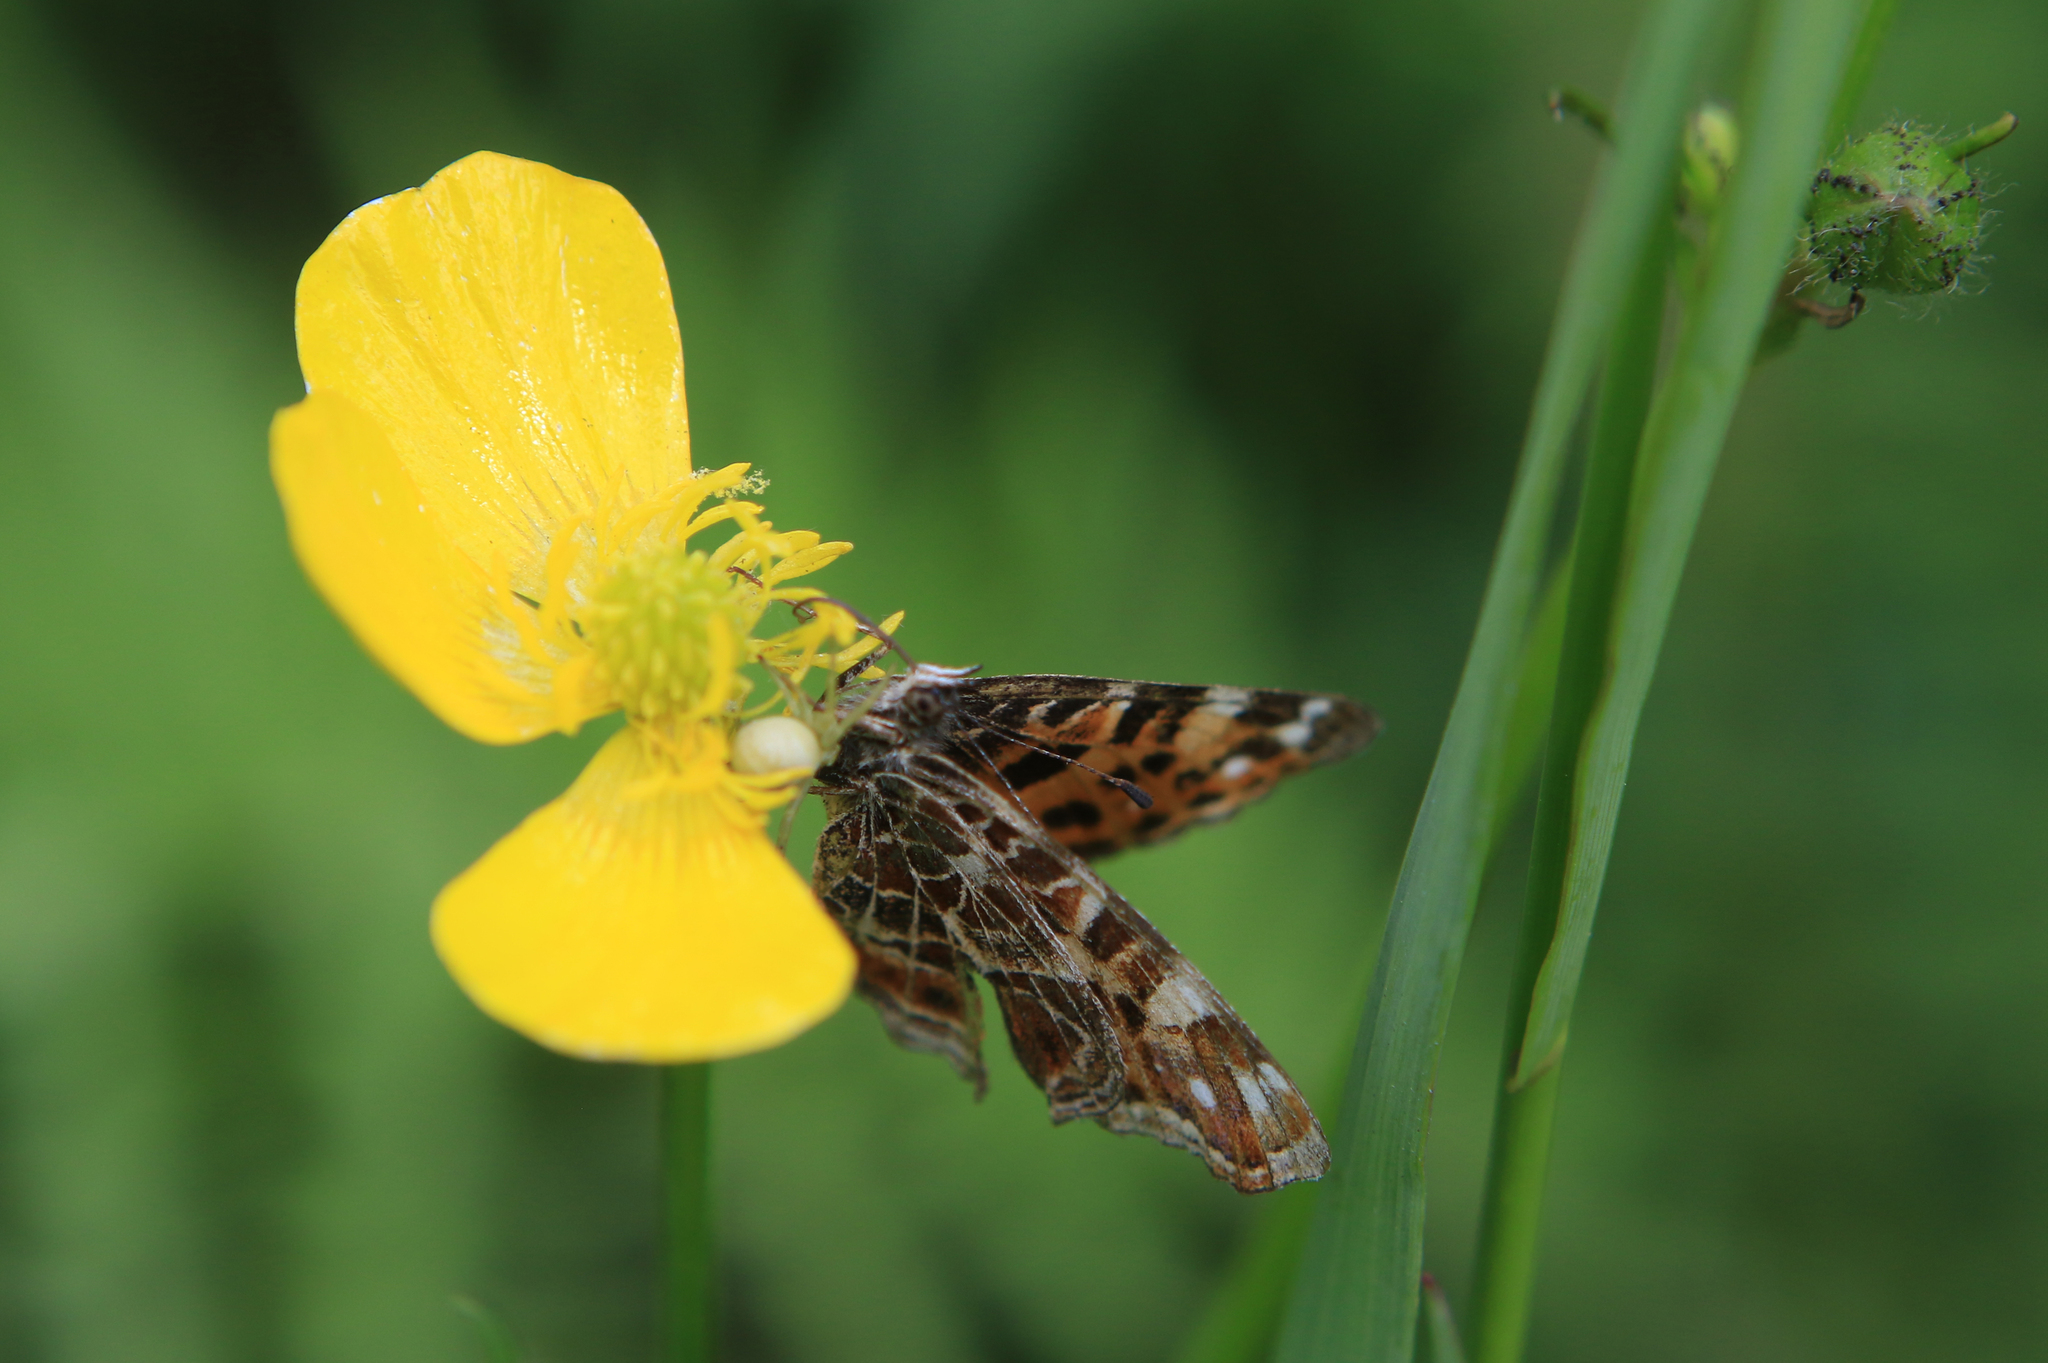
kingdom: Animalia
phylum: Arthropoda
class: Insecta
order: Lepidoptera
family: Nymphalidae
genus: Araschnia
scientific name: Araschnia levana
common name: Map butterfly
